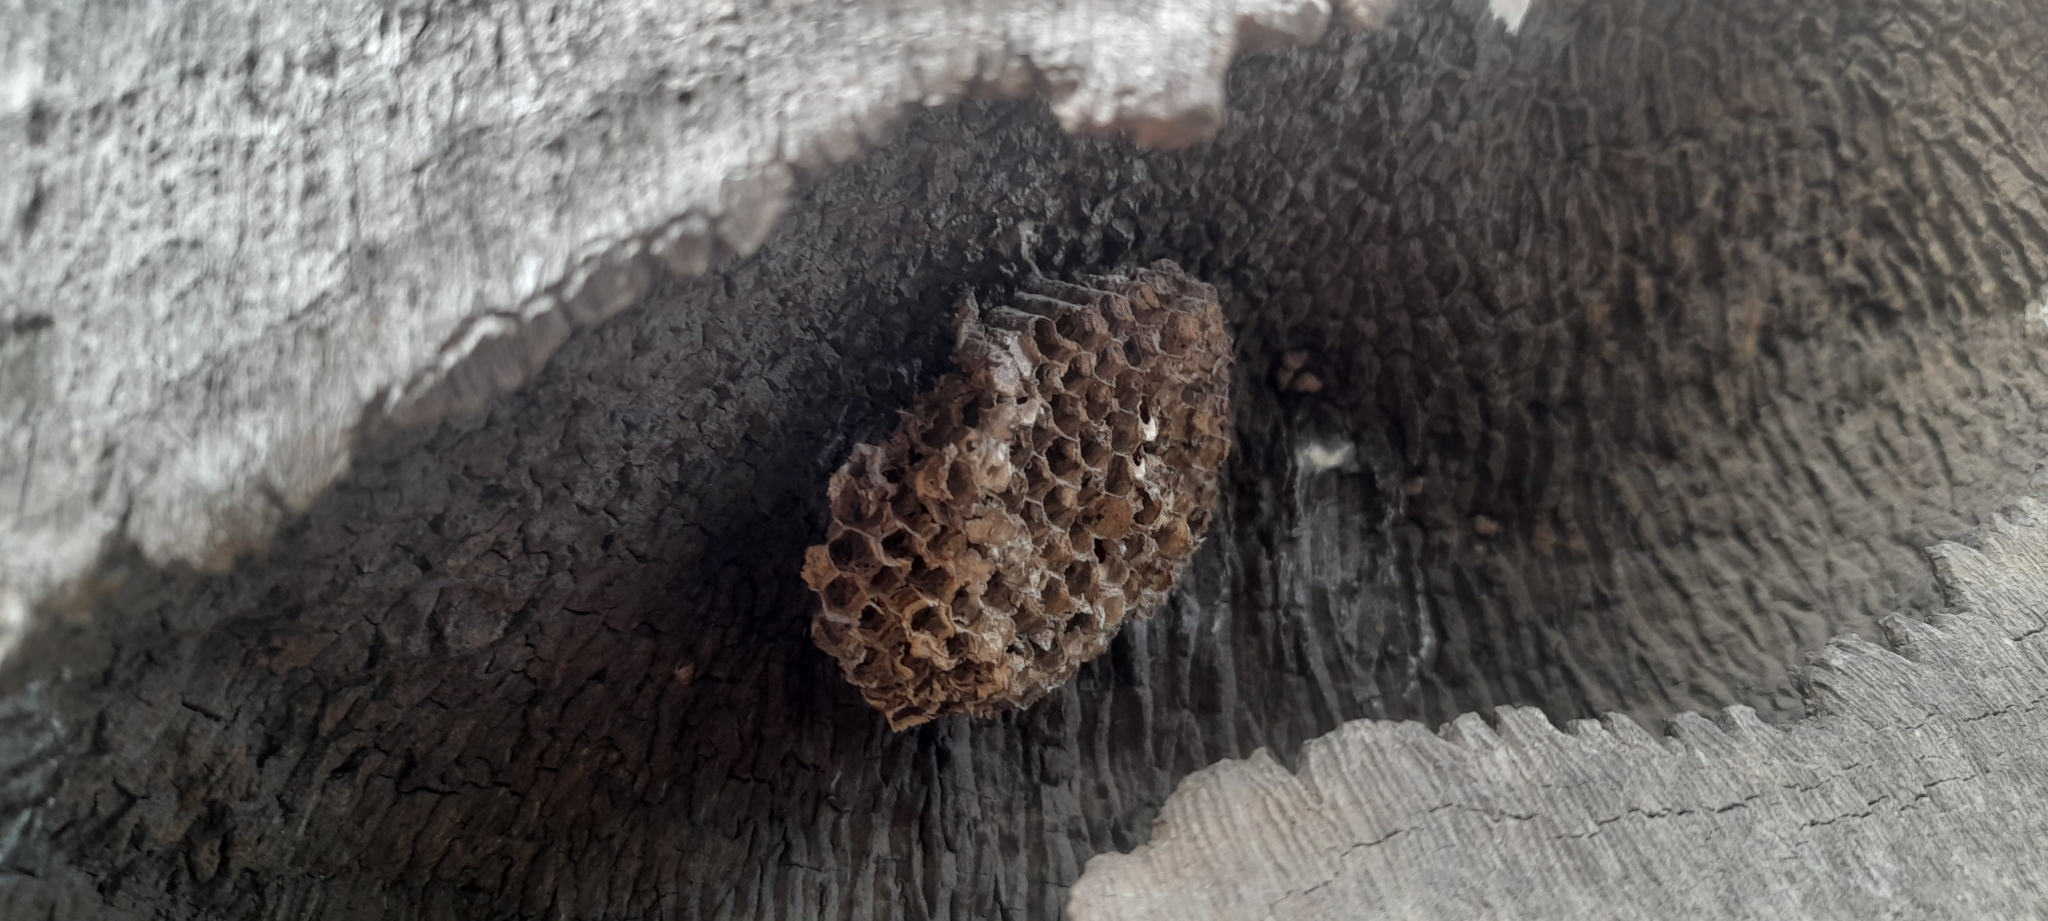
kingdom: Animalia
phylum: Arthropoda
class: Insecta
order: Hymenoptera
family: Vespidae
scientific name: Vespidae
